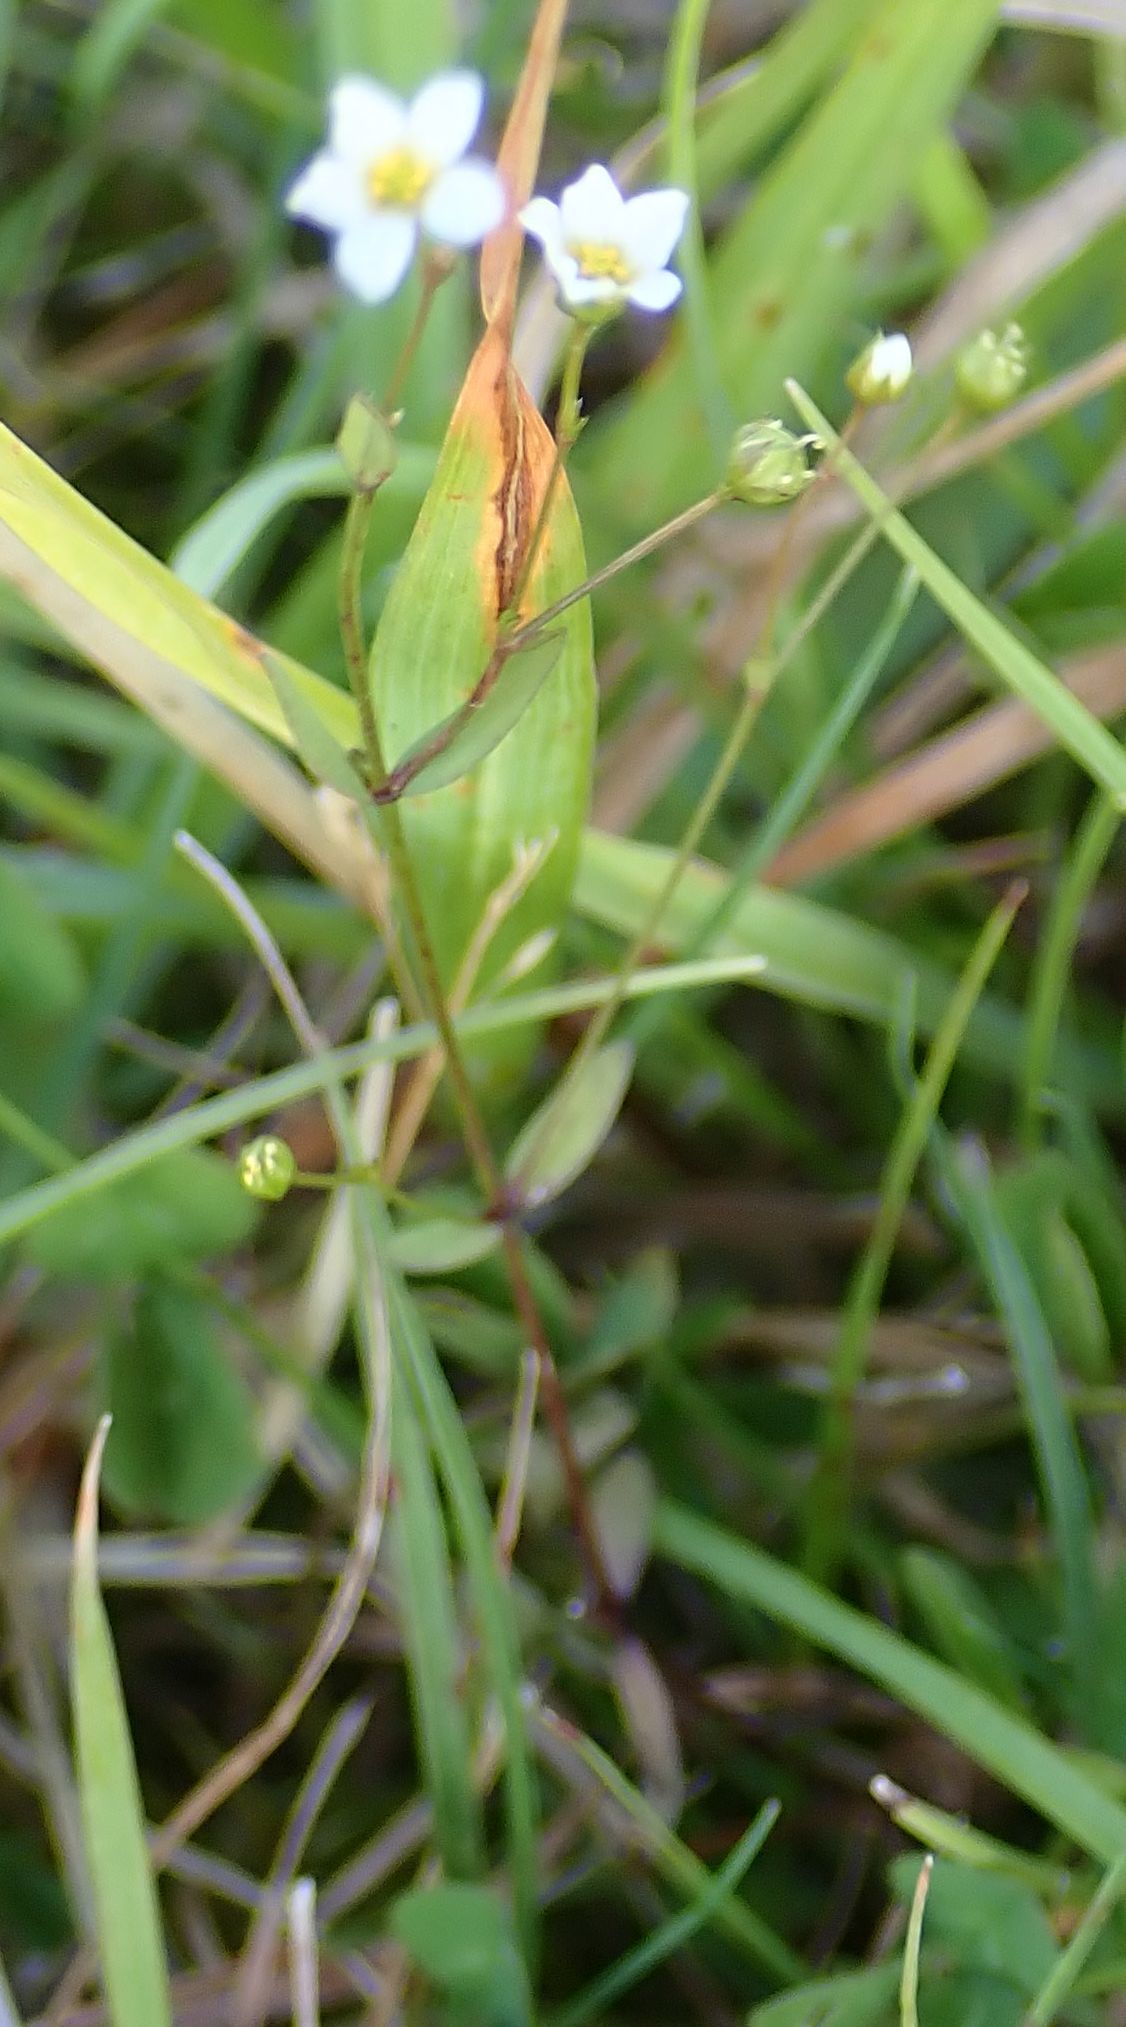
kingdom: Plantae
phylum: Tracheophyta
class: Magnoliopsida
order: Malpighiales
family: Linaceae
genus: Linum
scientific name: Linum catharticum
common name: Fairy flax
